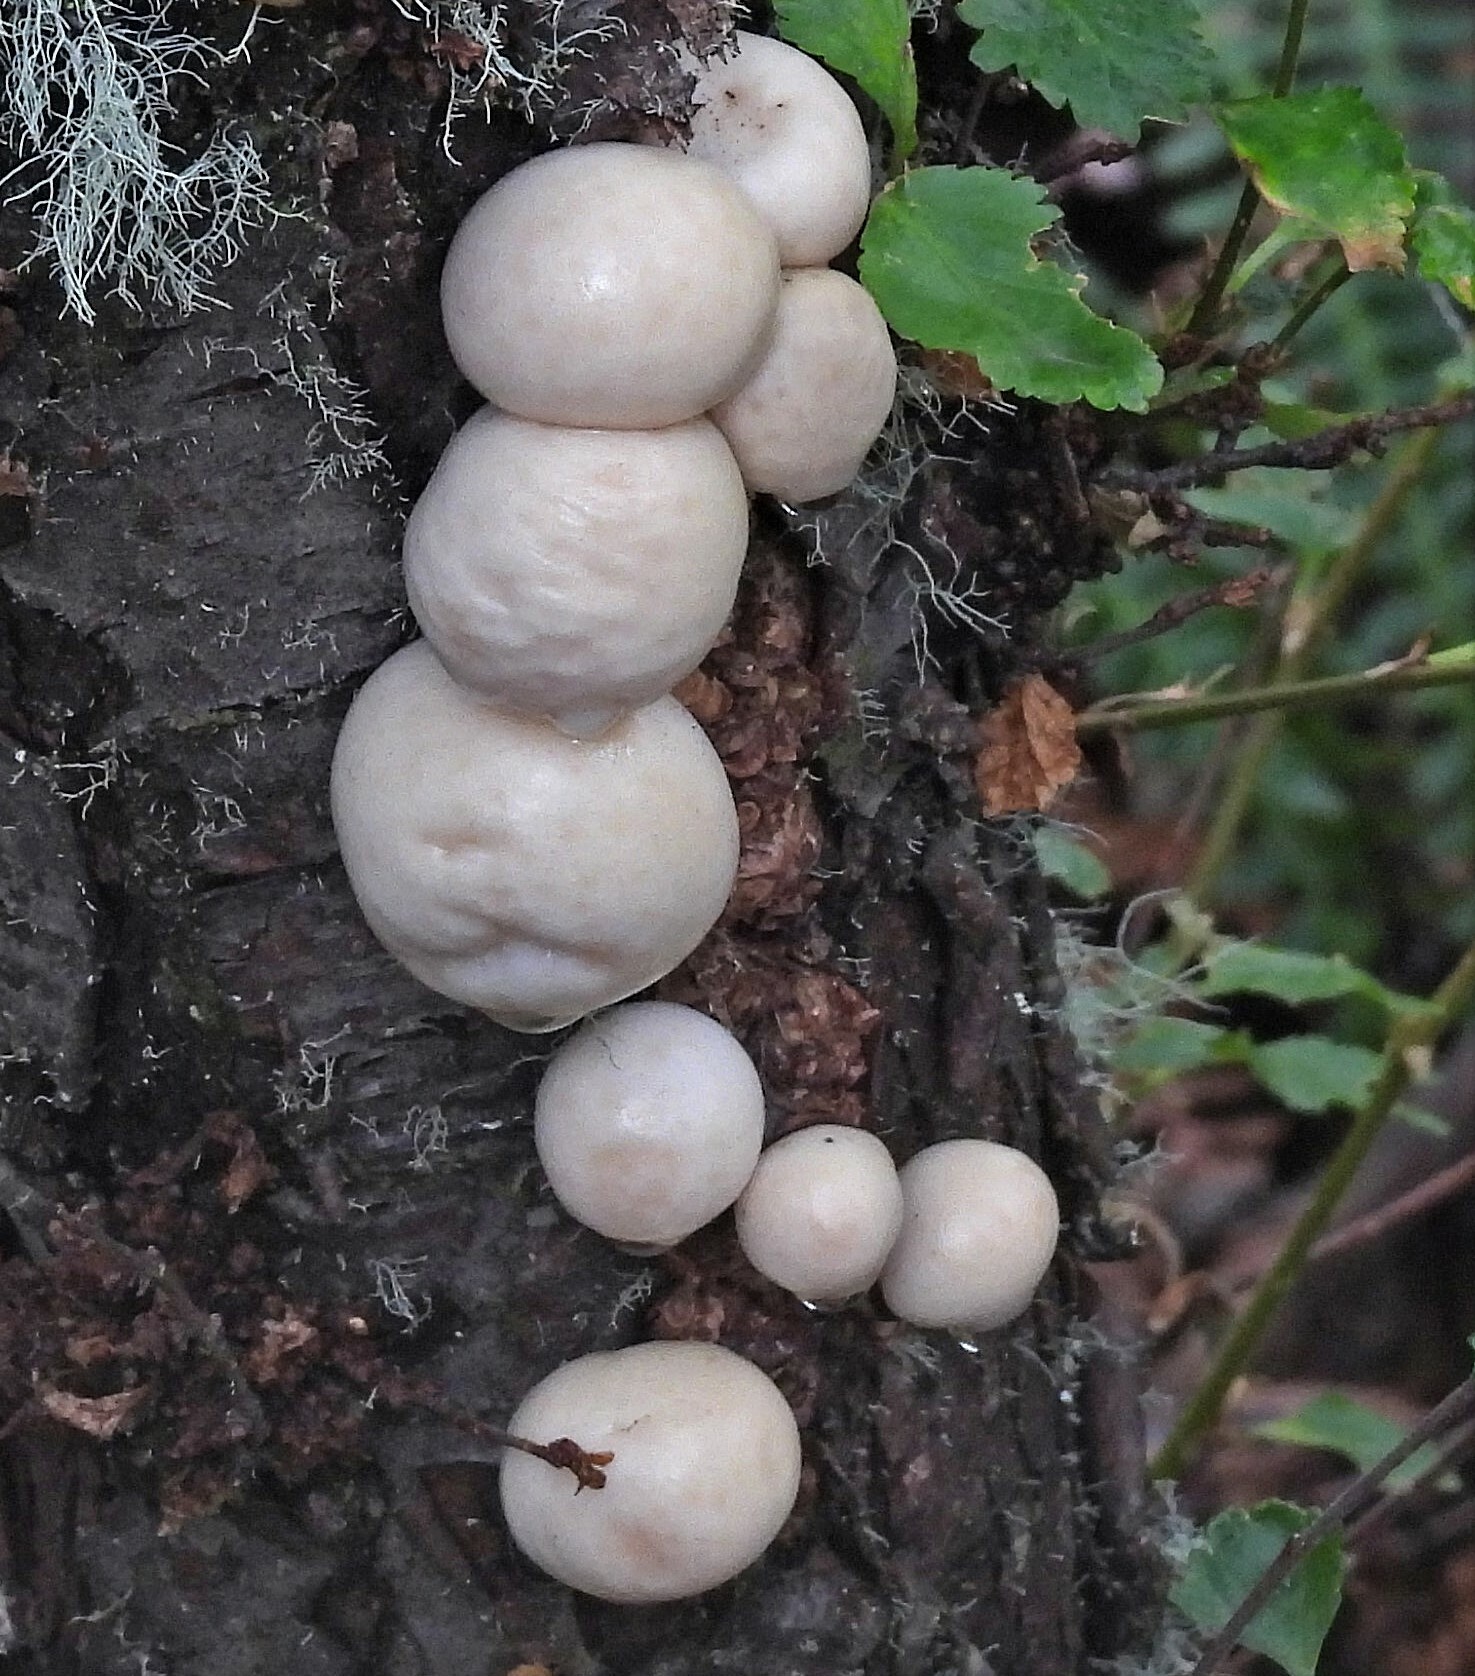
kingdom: Fungi
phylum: Ascomycota
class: Leotiomycetes
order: Cyttariales
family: Cyttariaceae
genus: Cyttaria
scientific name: Cyttaria darwinii
